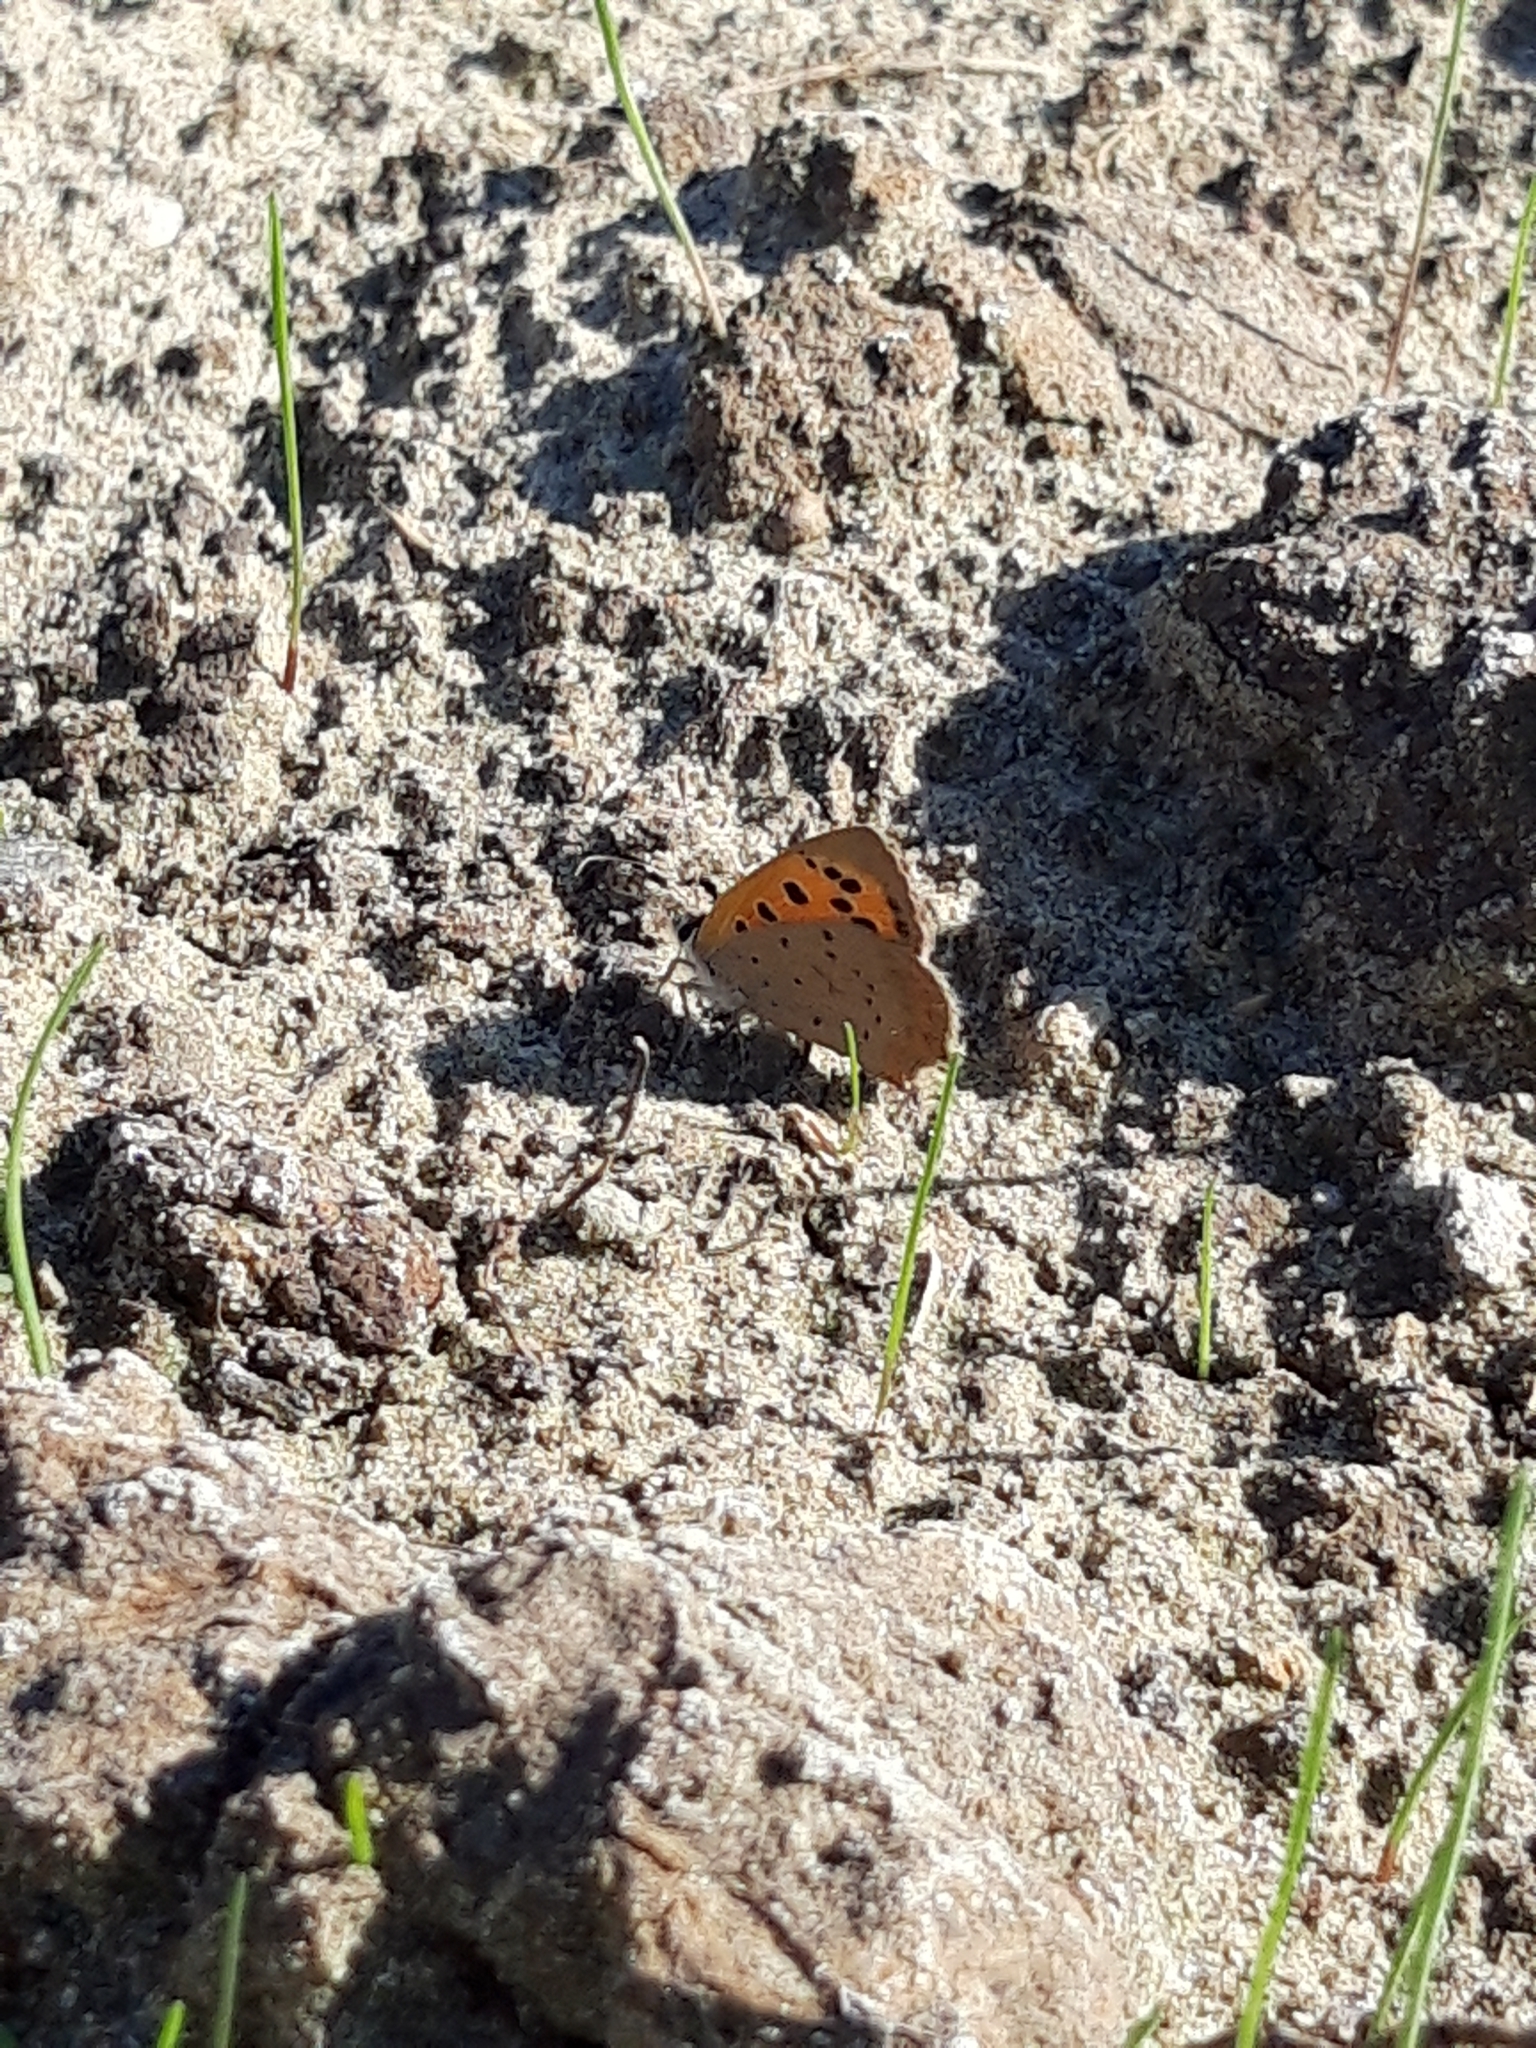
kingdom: Animalia
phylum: Arthropoda
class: Insecta
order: Lepidoptera
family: Lycaenidae
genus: Lycaena
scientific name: Lycaena phlaeas
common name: Small copper
